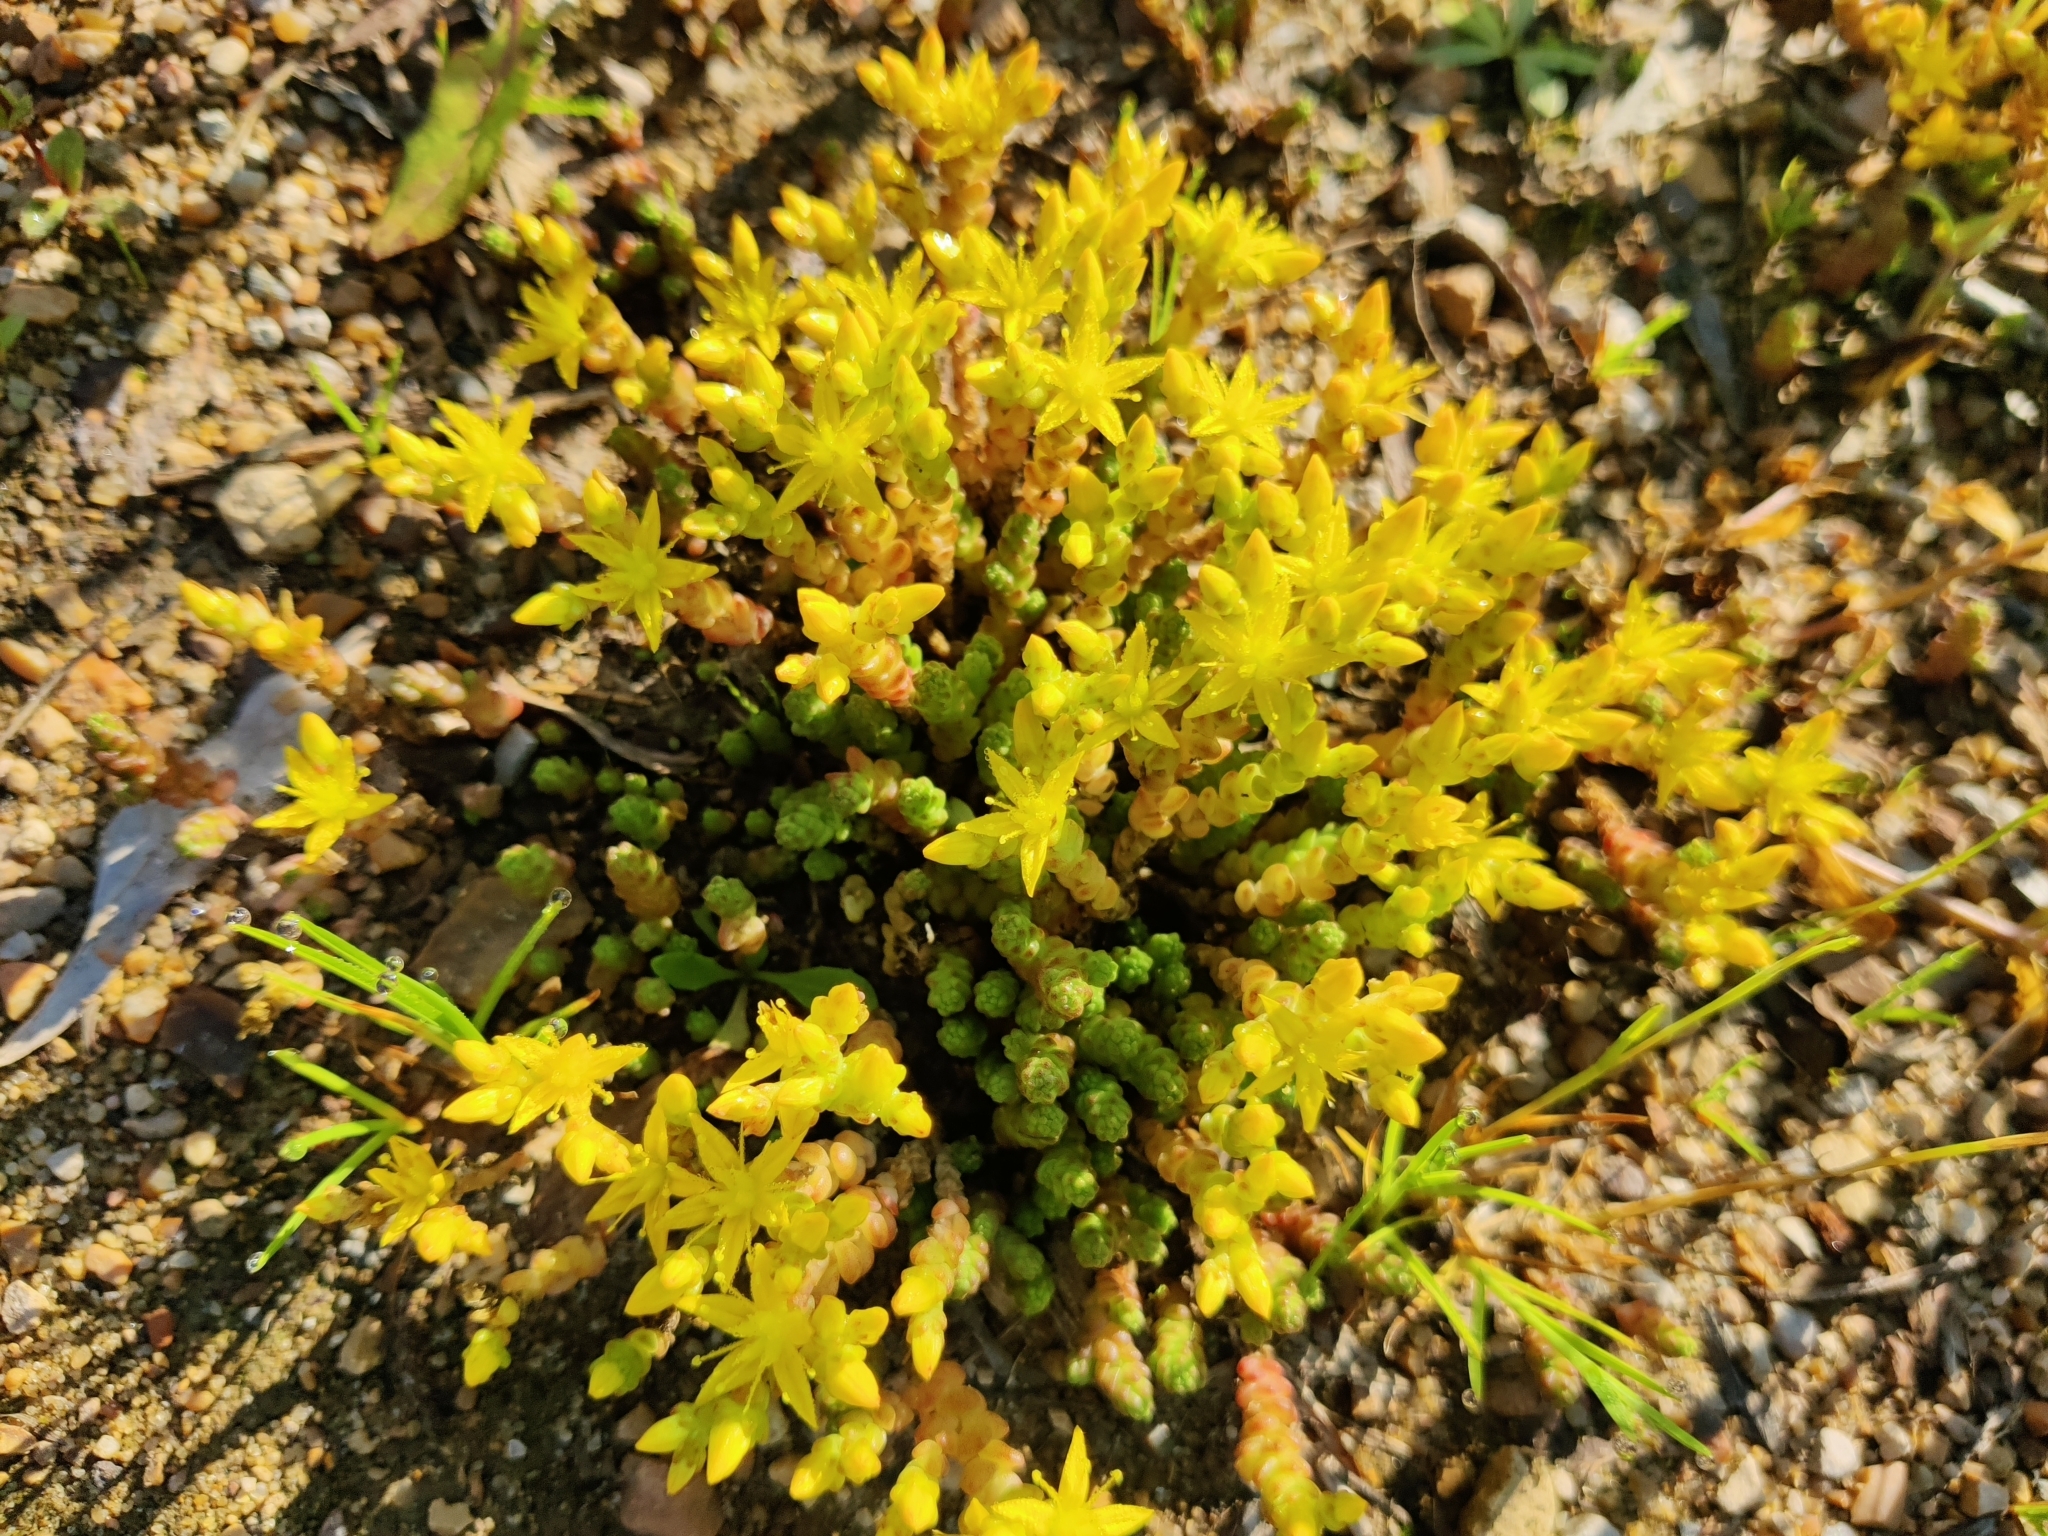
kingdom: Plantae
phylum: Tracheophyta
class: Magnoliopsida
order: Saxifragales
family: Crassulaceae
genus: Sedum
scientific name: Sedum acre
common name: Biting stonecrop
